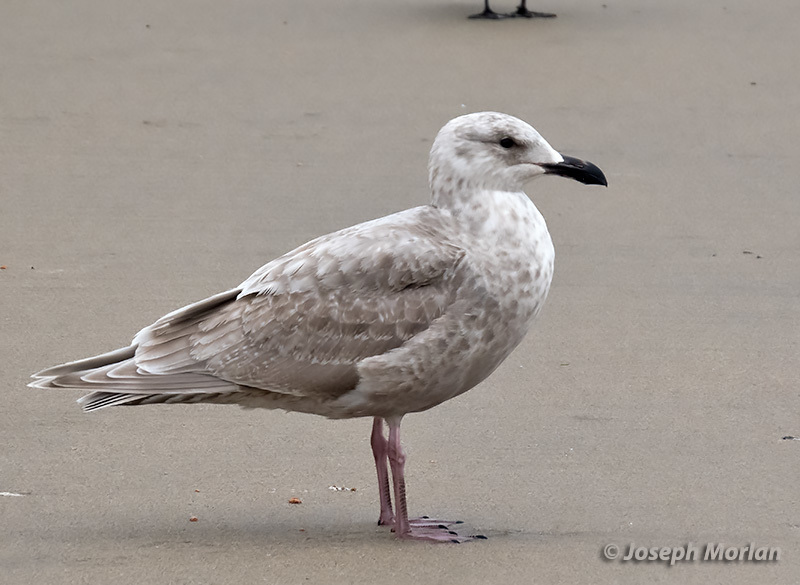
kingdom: Animalia
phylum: Chordata
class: Aves
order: Charadriiformes
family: Laridae
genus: Larus
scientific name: Larus glaucescens
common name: Glaucous-winged gull
